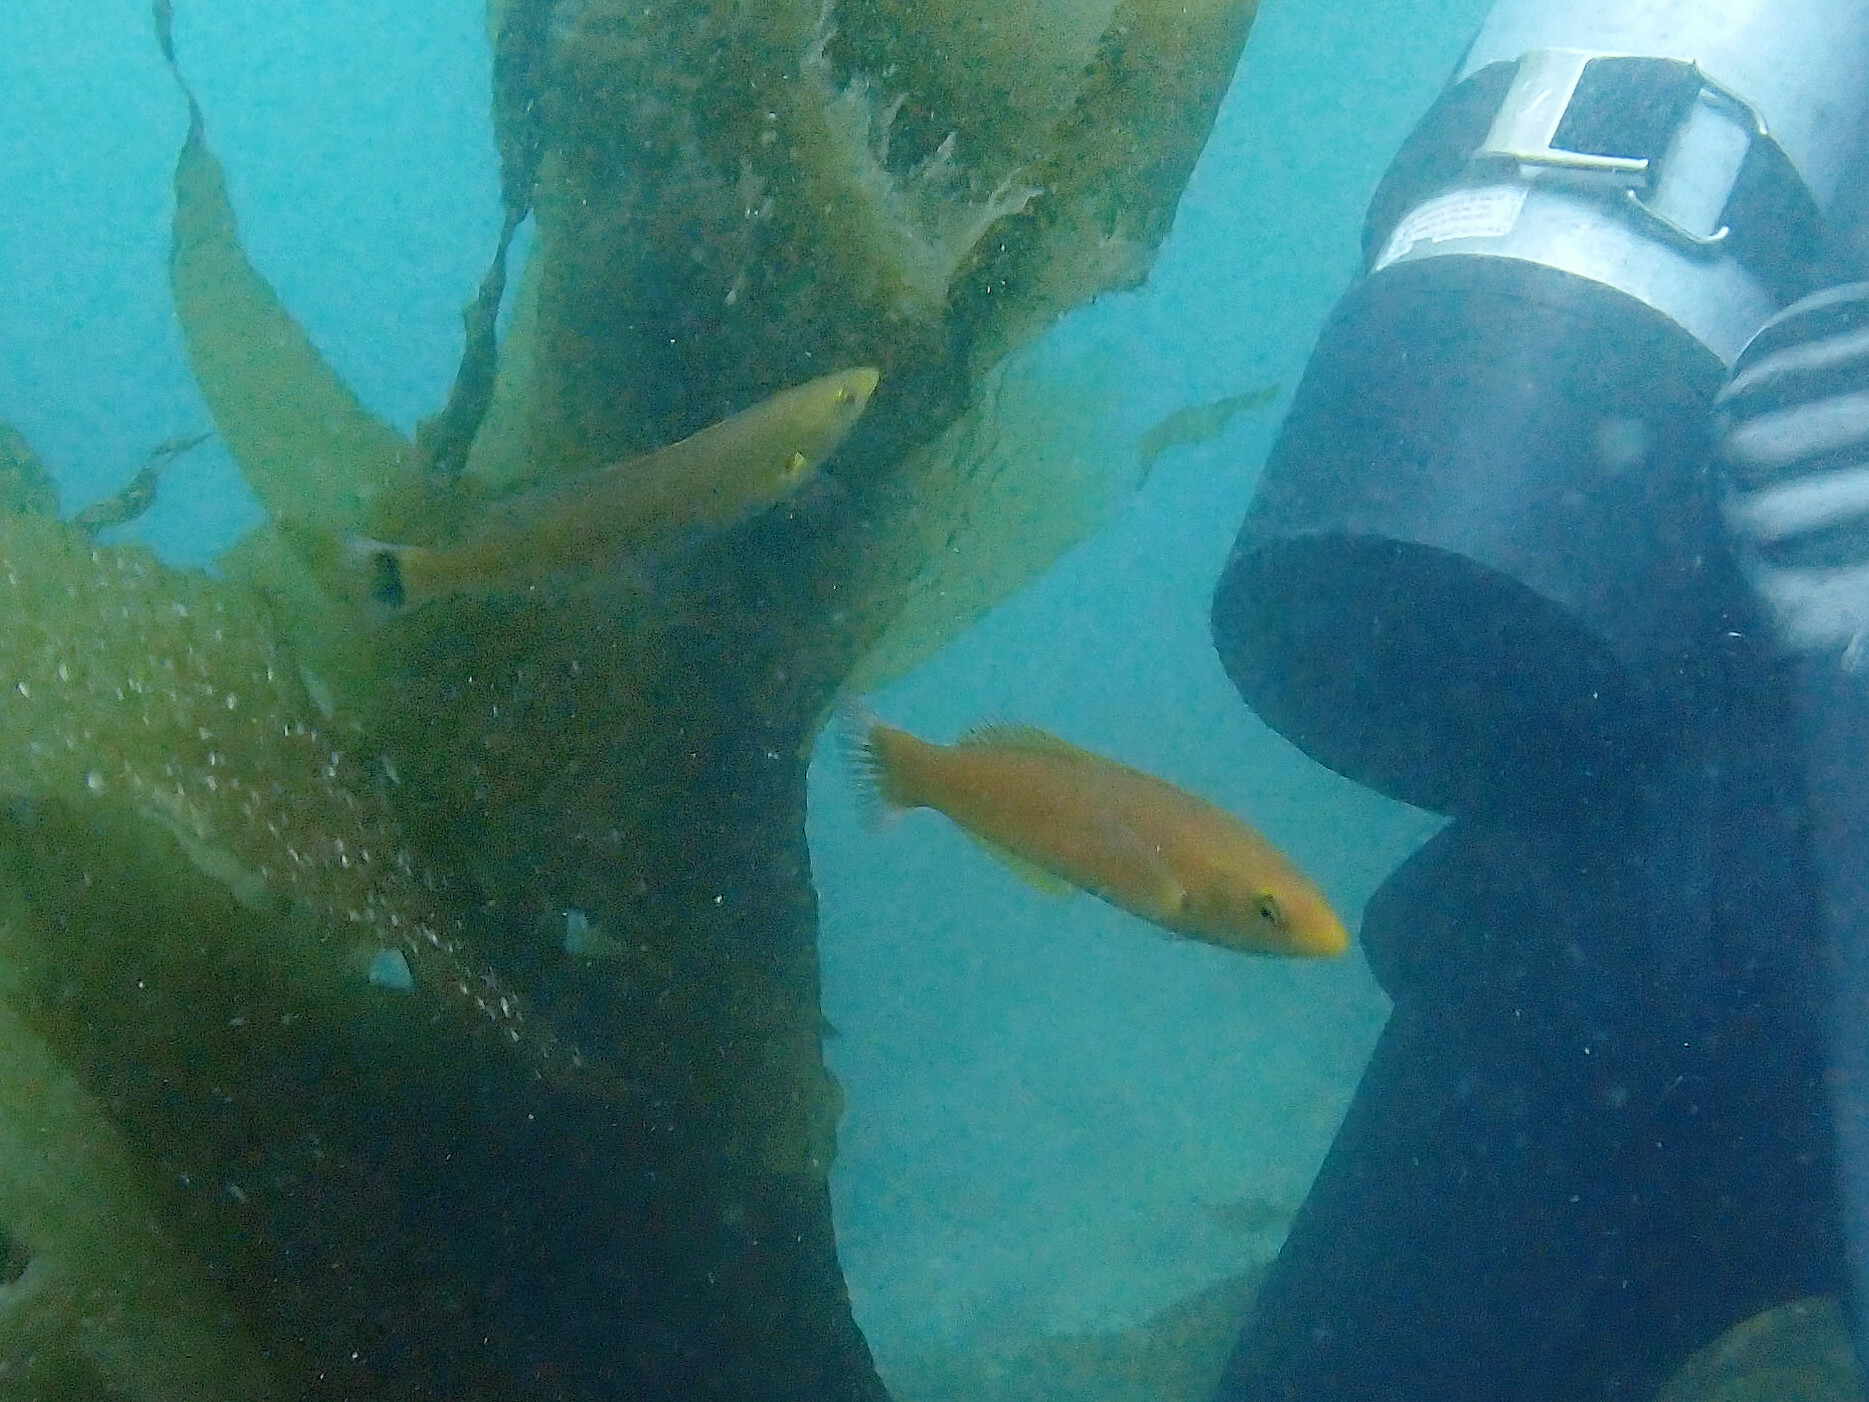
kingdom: Animalia
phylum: Chordata
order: Perciformes
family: Labridae
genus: Oxyjulis
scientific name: Oxyjulis californica
